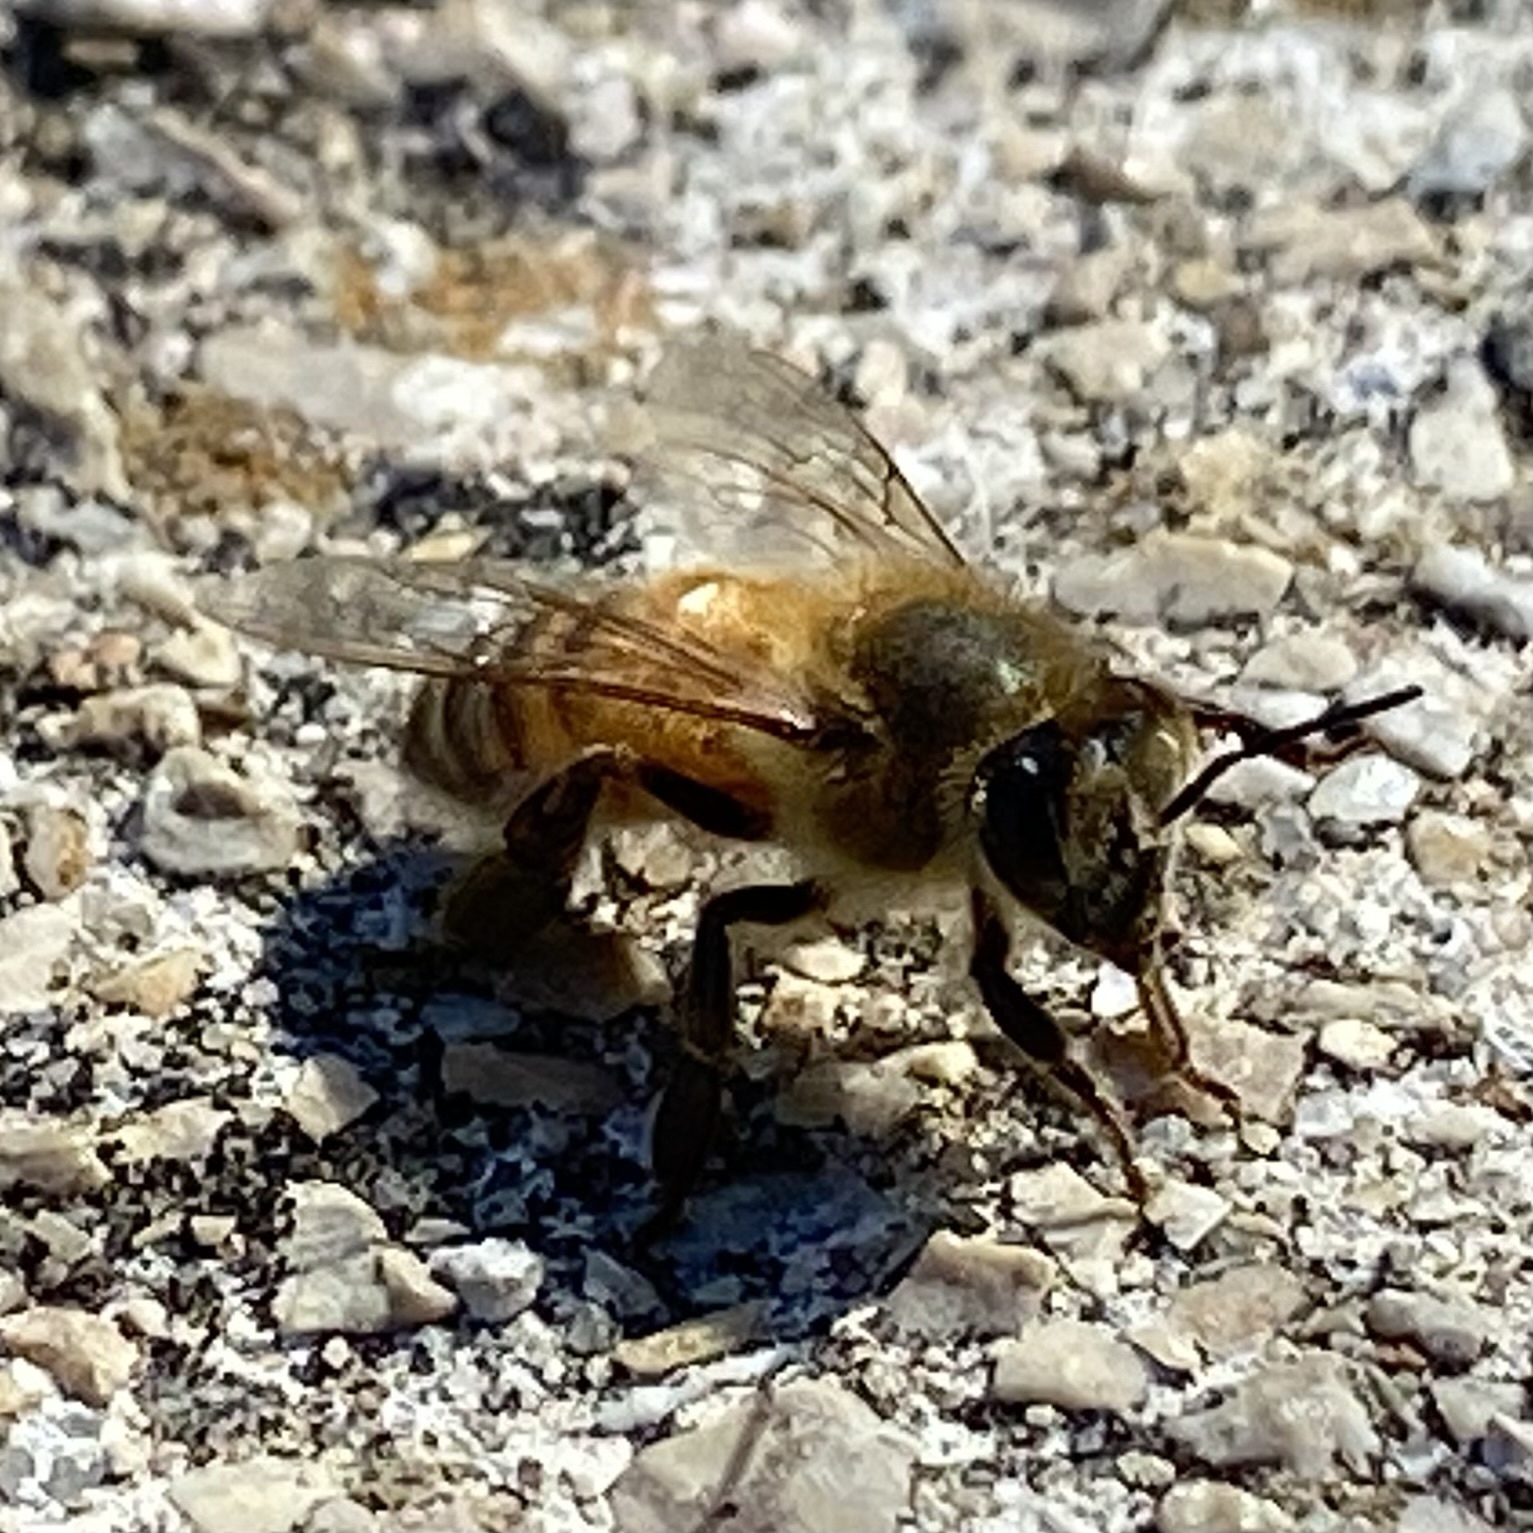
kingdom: Animalia
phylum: Arthropoda
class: Insecta
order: Hymenoptera
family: Apidae
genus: Apis
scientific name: Apis mellifera
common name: Honey bee
